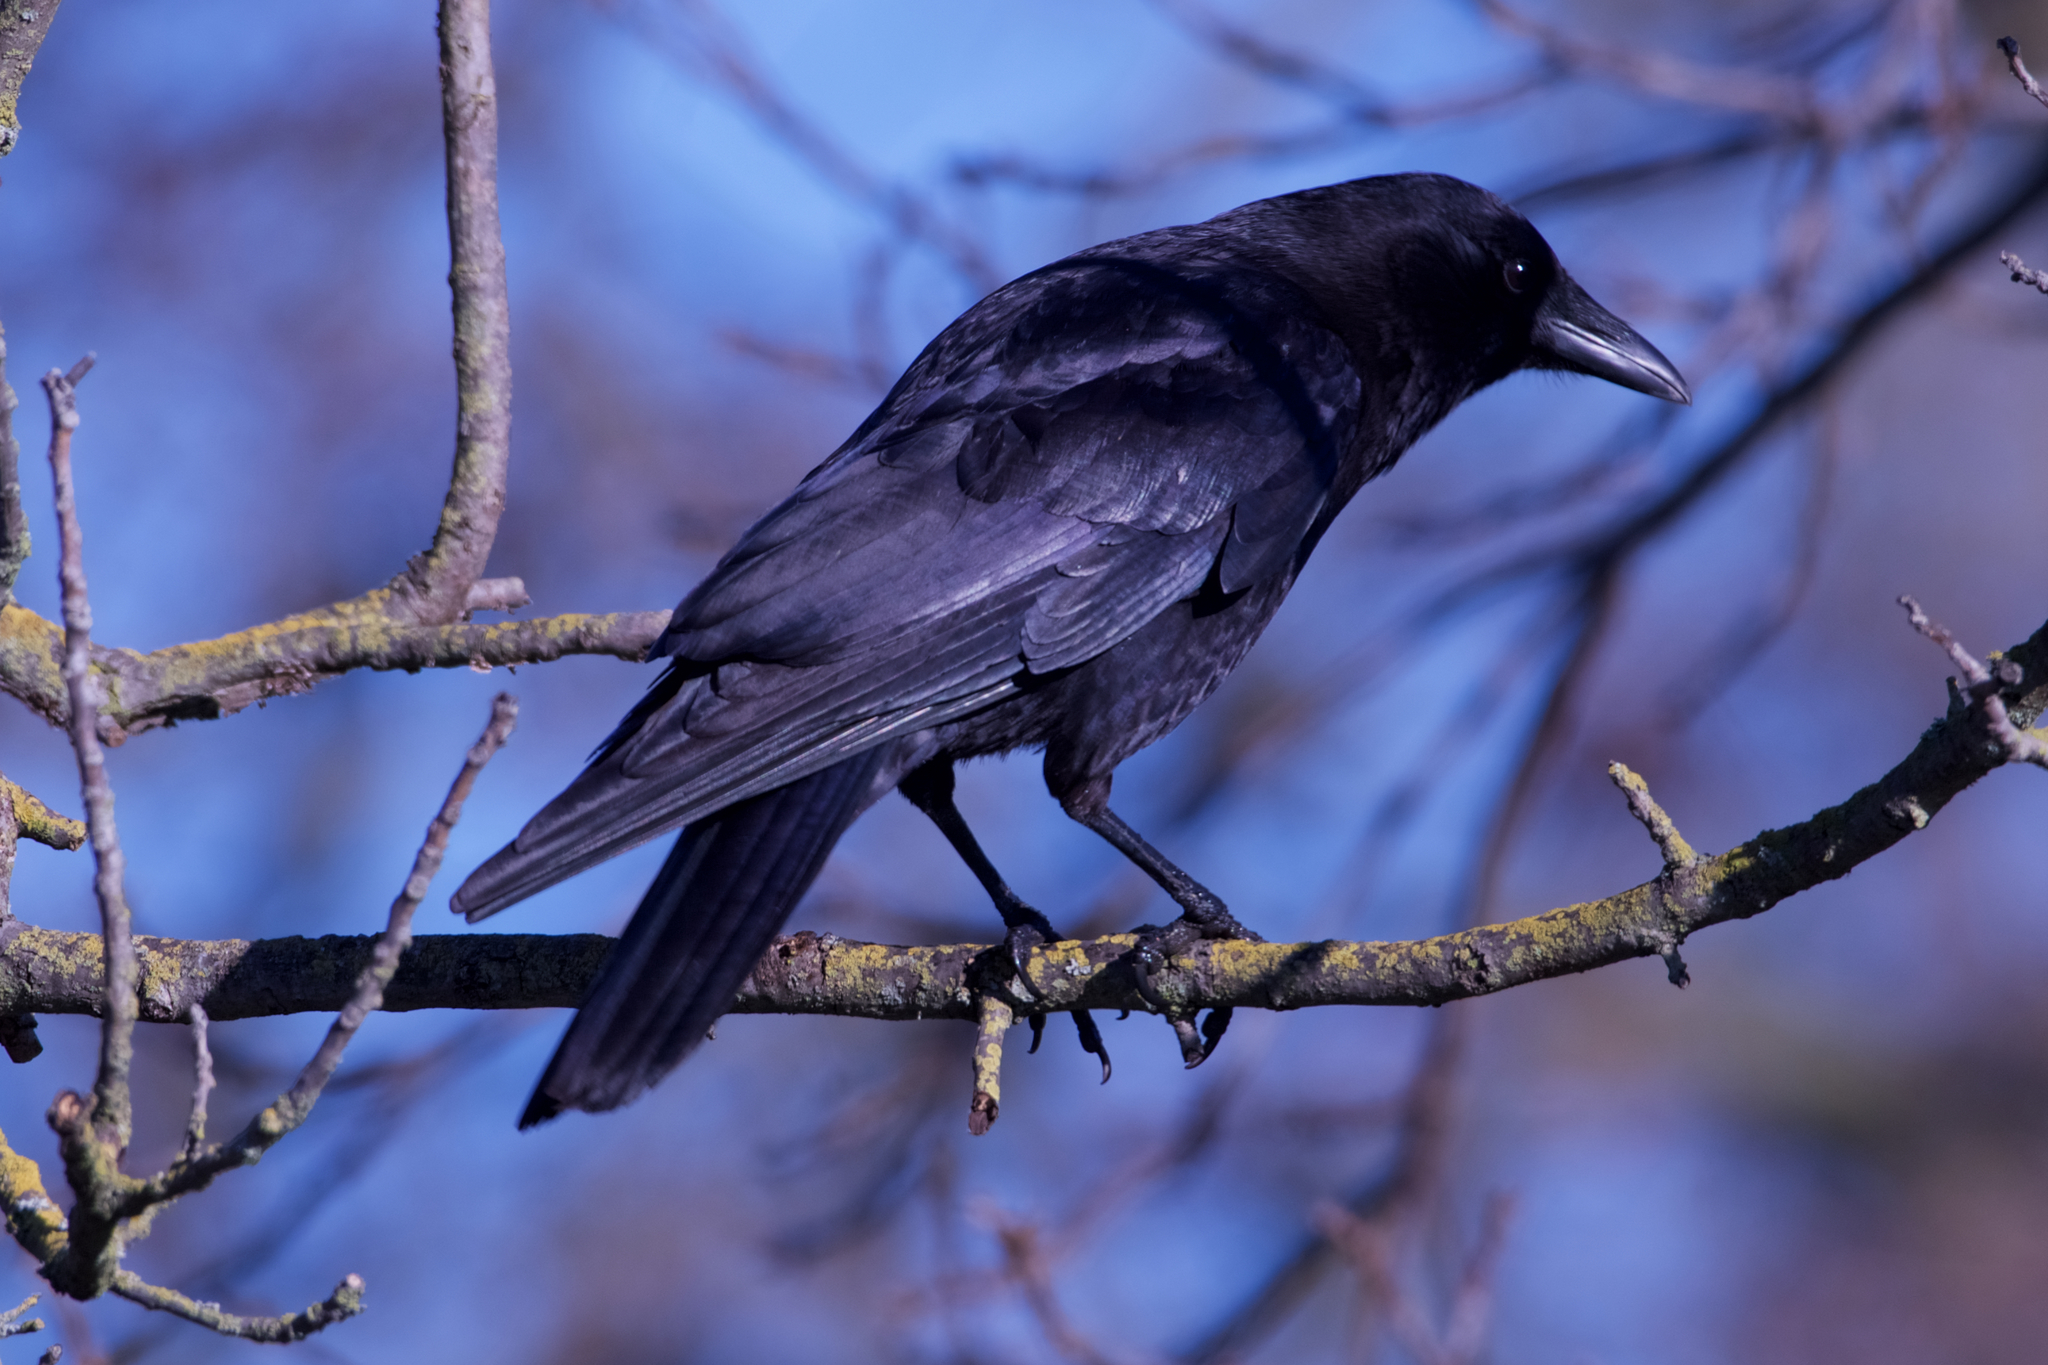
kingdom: Animalia
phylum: Chordata
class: Aves
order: Passeriformes
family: Corvidae
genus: Corvus
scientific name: Corvus brachyrhynchos
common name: American crow
